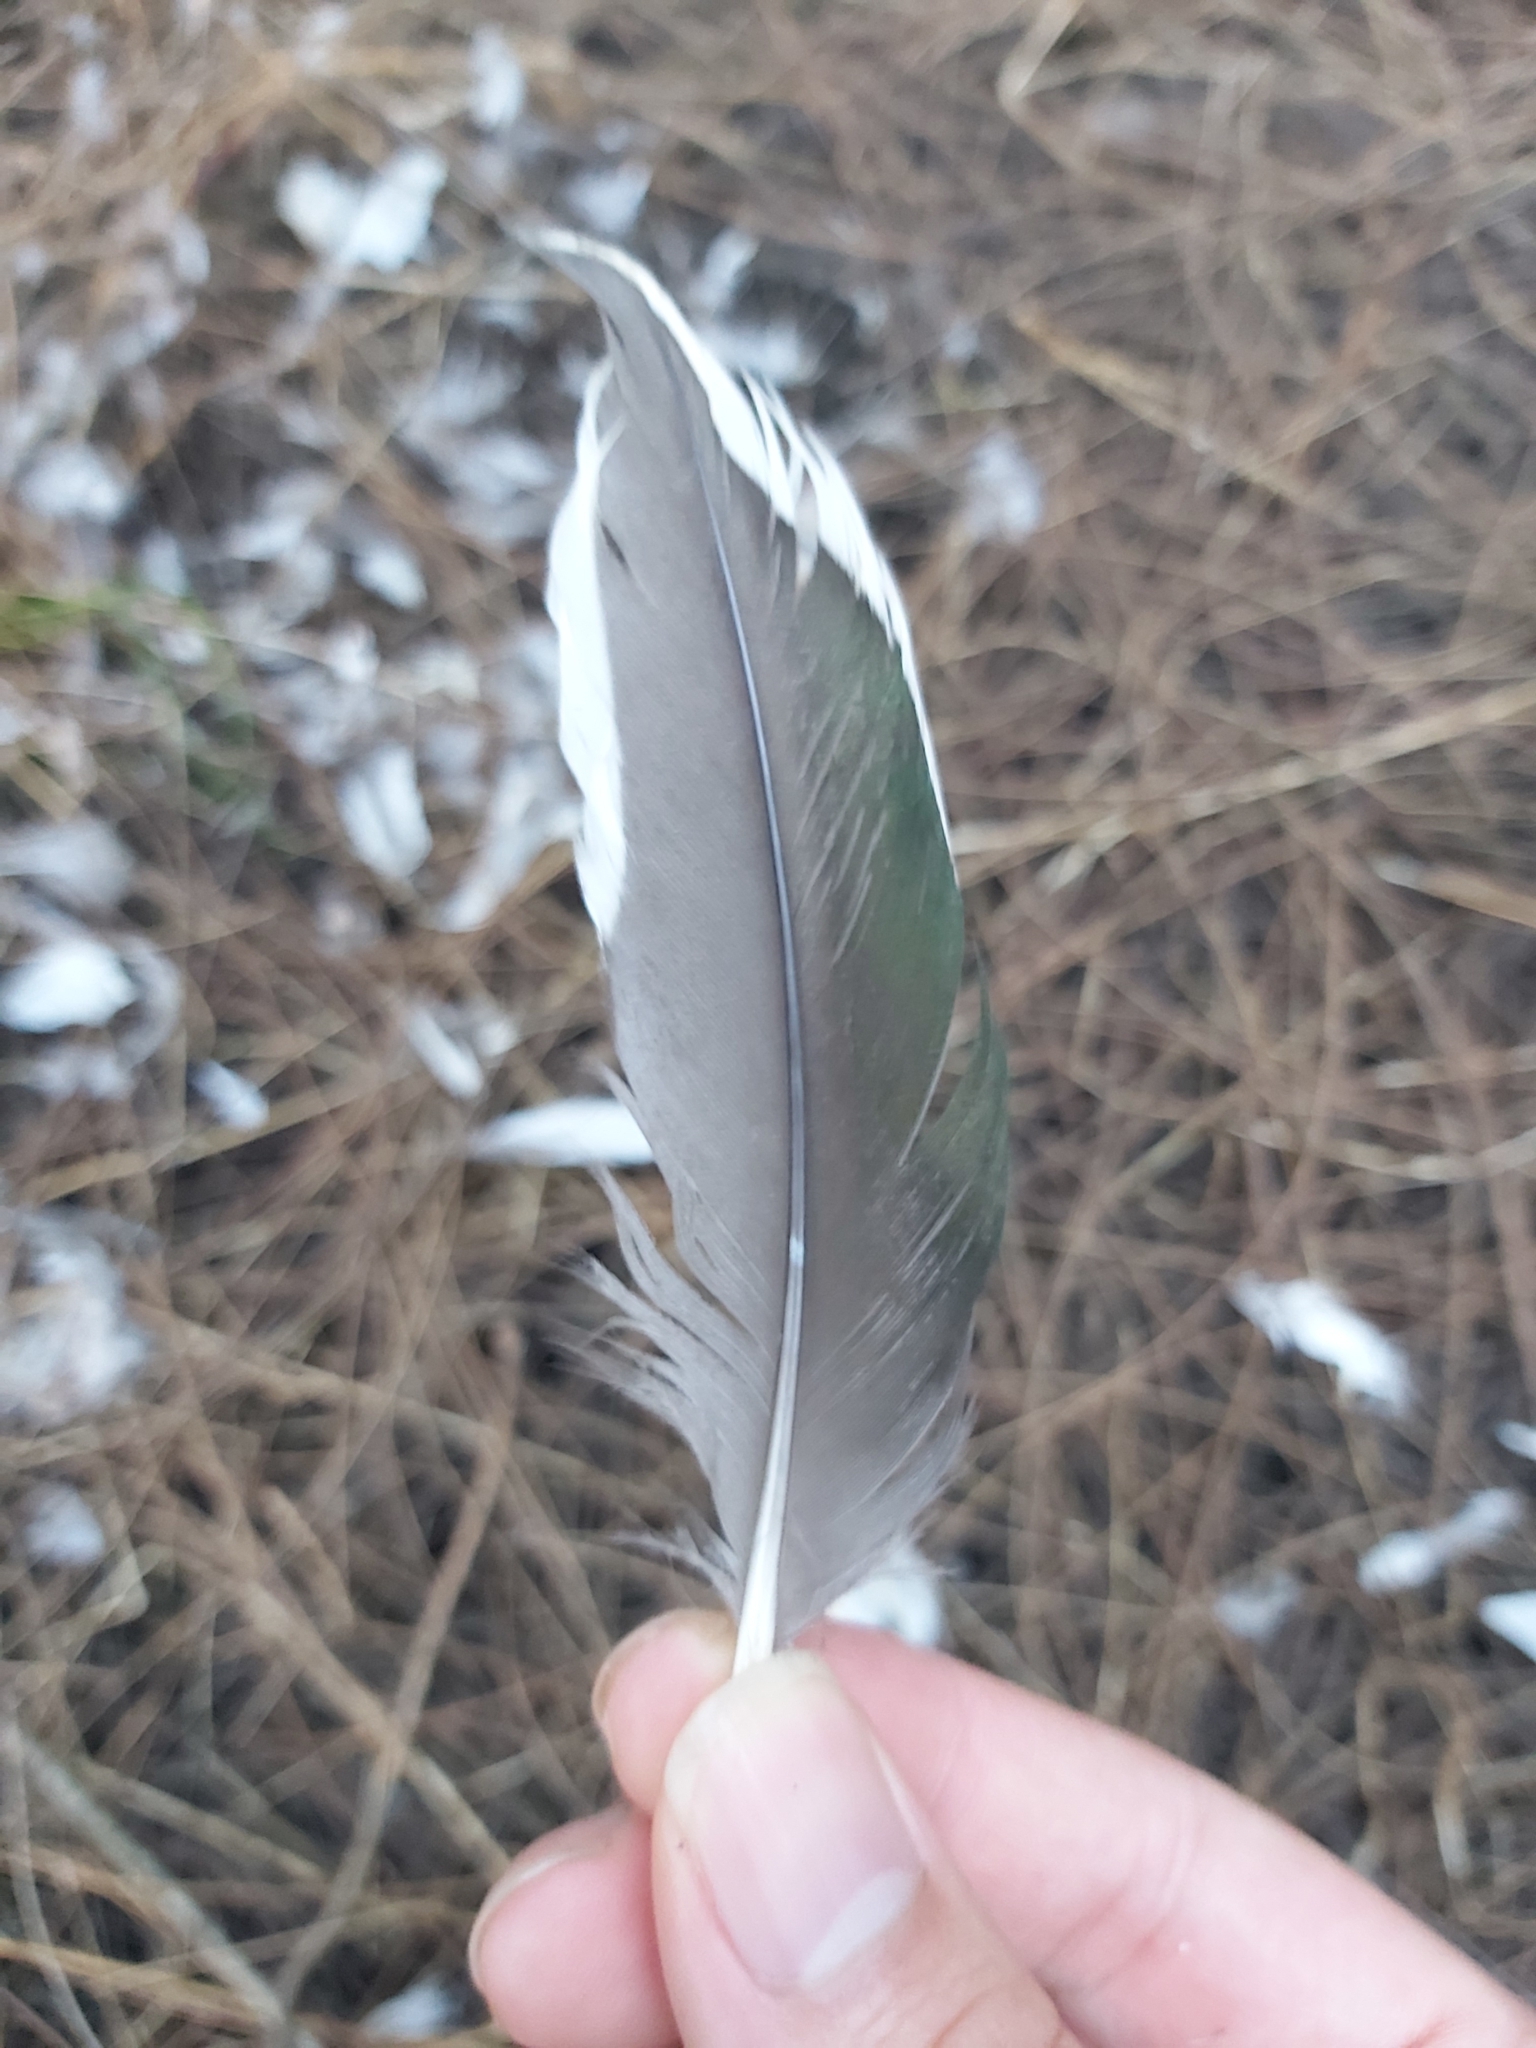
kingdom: Animalia
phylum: Chordata
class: Aves
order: Anseriformes
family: Anatidae
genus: Chenonetta
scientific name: Chenonetta jubata
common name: Maned duck
